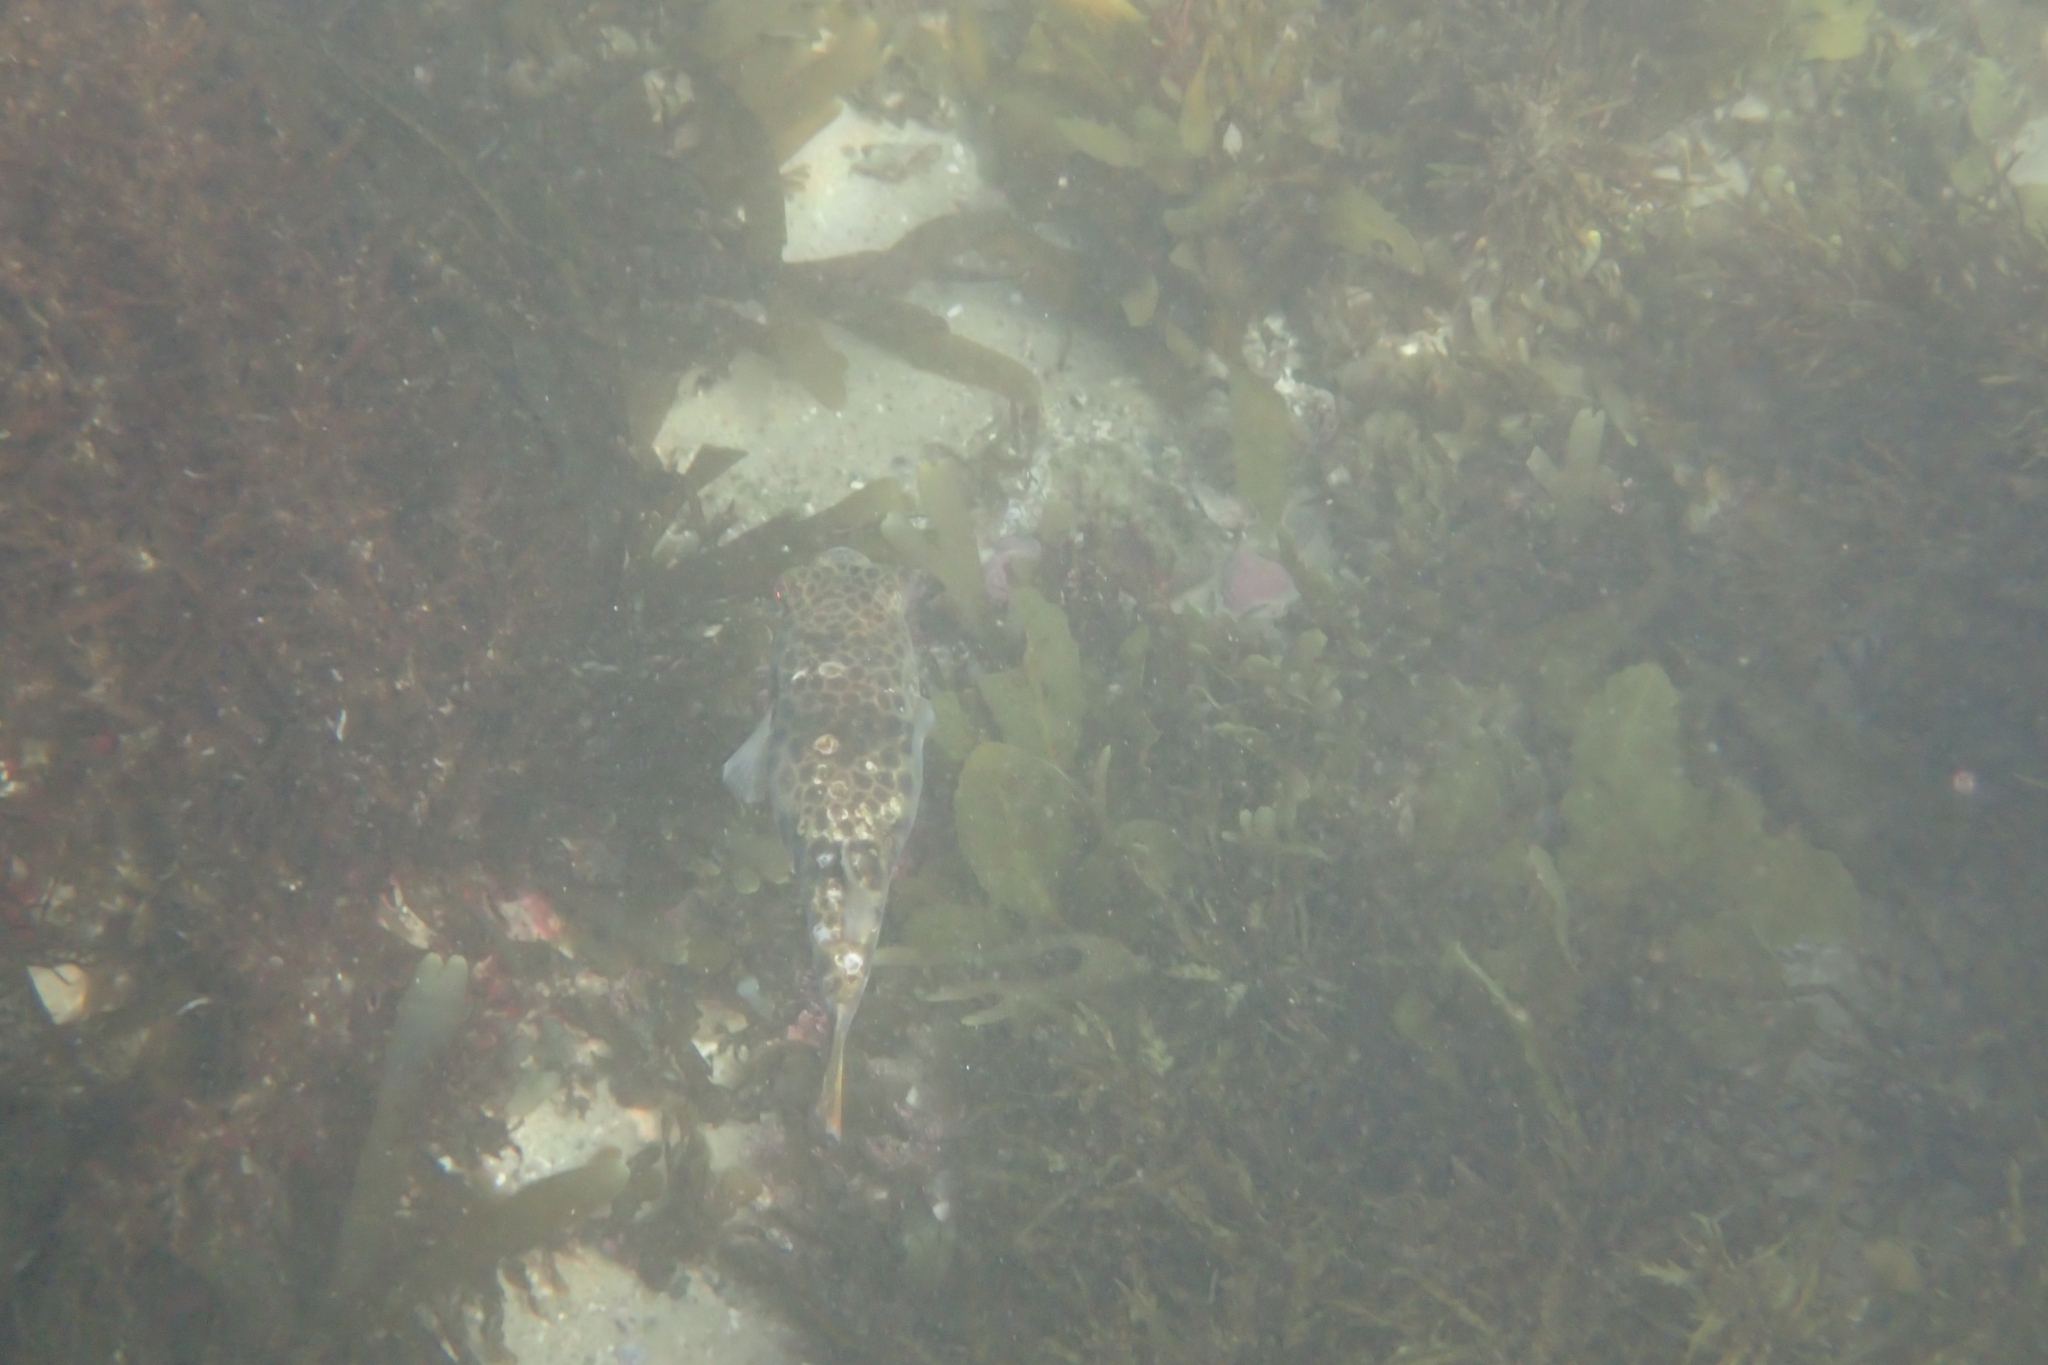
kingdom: Animalia
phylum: Chordata
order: Tetraodontiformes
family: Tetraodontidae
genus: Tetractenos
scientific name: Tetractenos glaber
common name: Smooth toadfish
